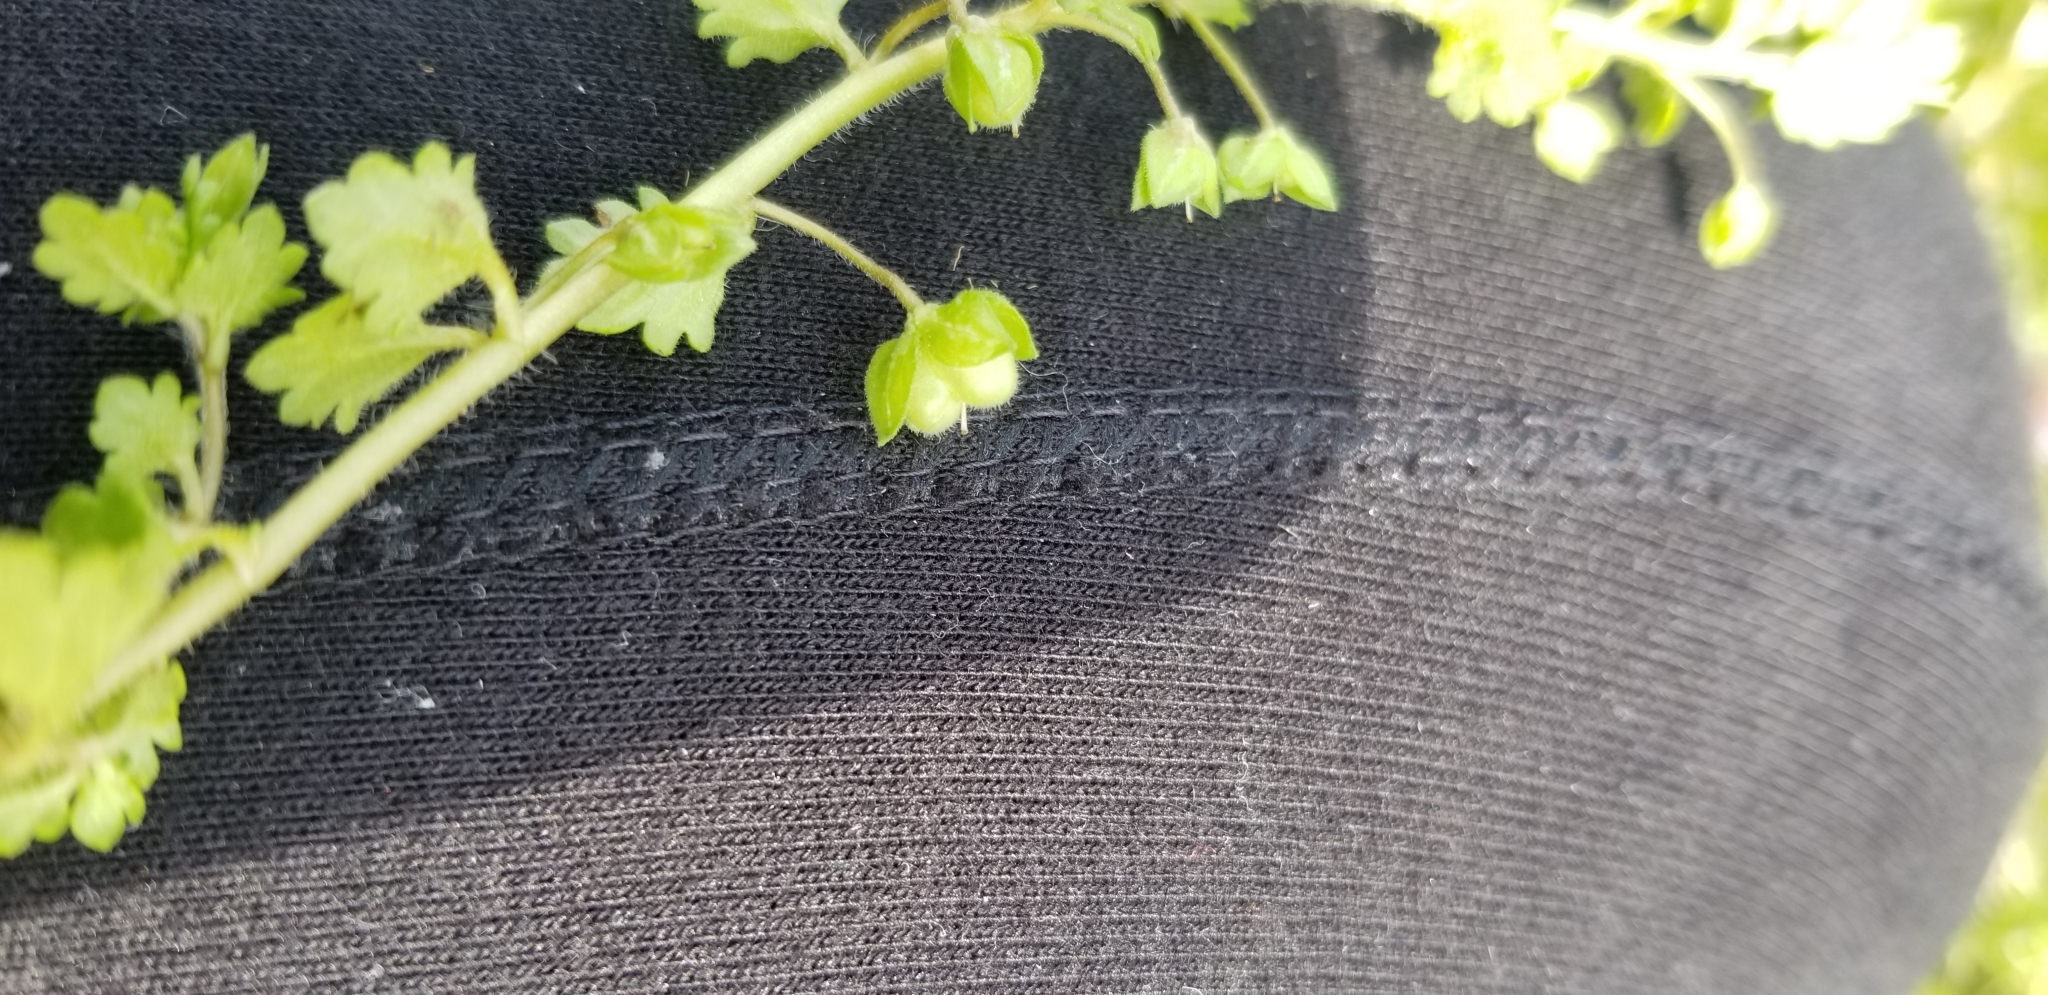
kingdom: Plantae
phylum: Tracheophyta
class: Magnoliopsida
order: Lamiales
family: Plantaginaceae
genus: Veronica
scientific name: Veronica polita
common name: Grey field-speedwell
